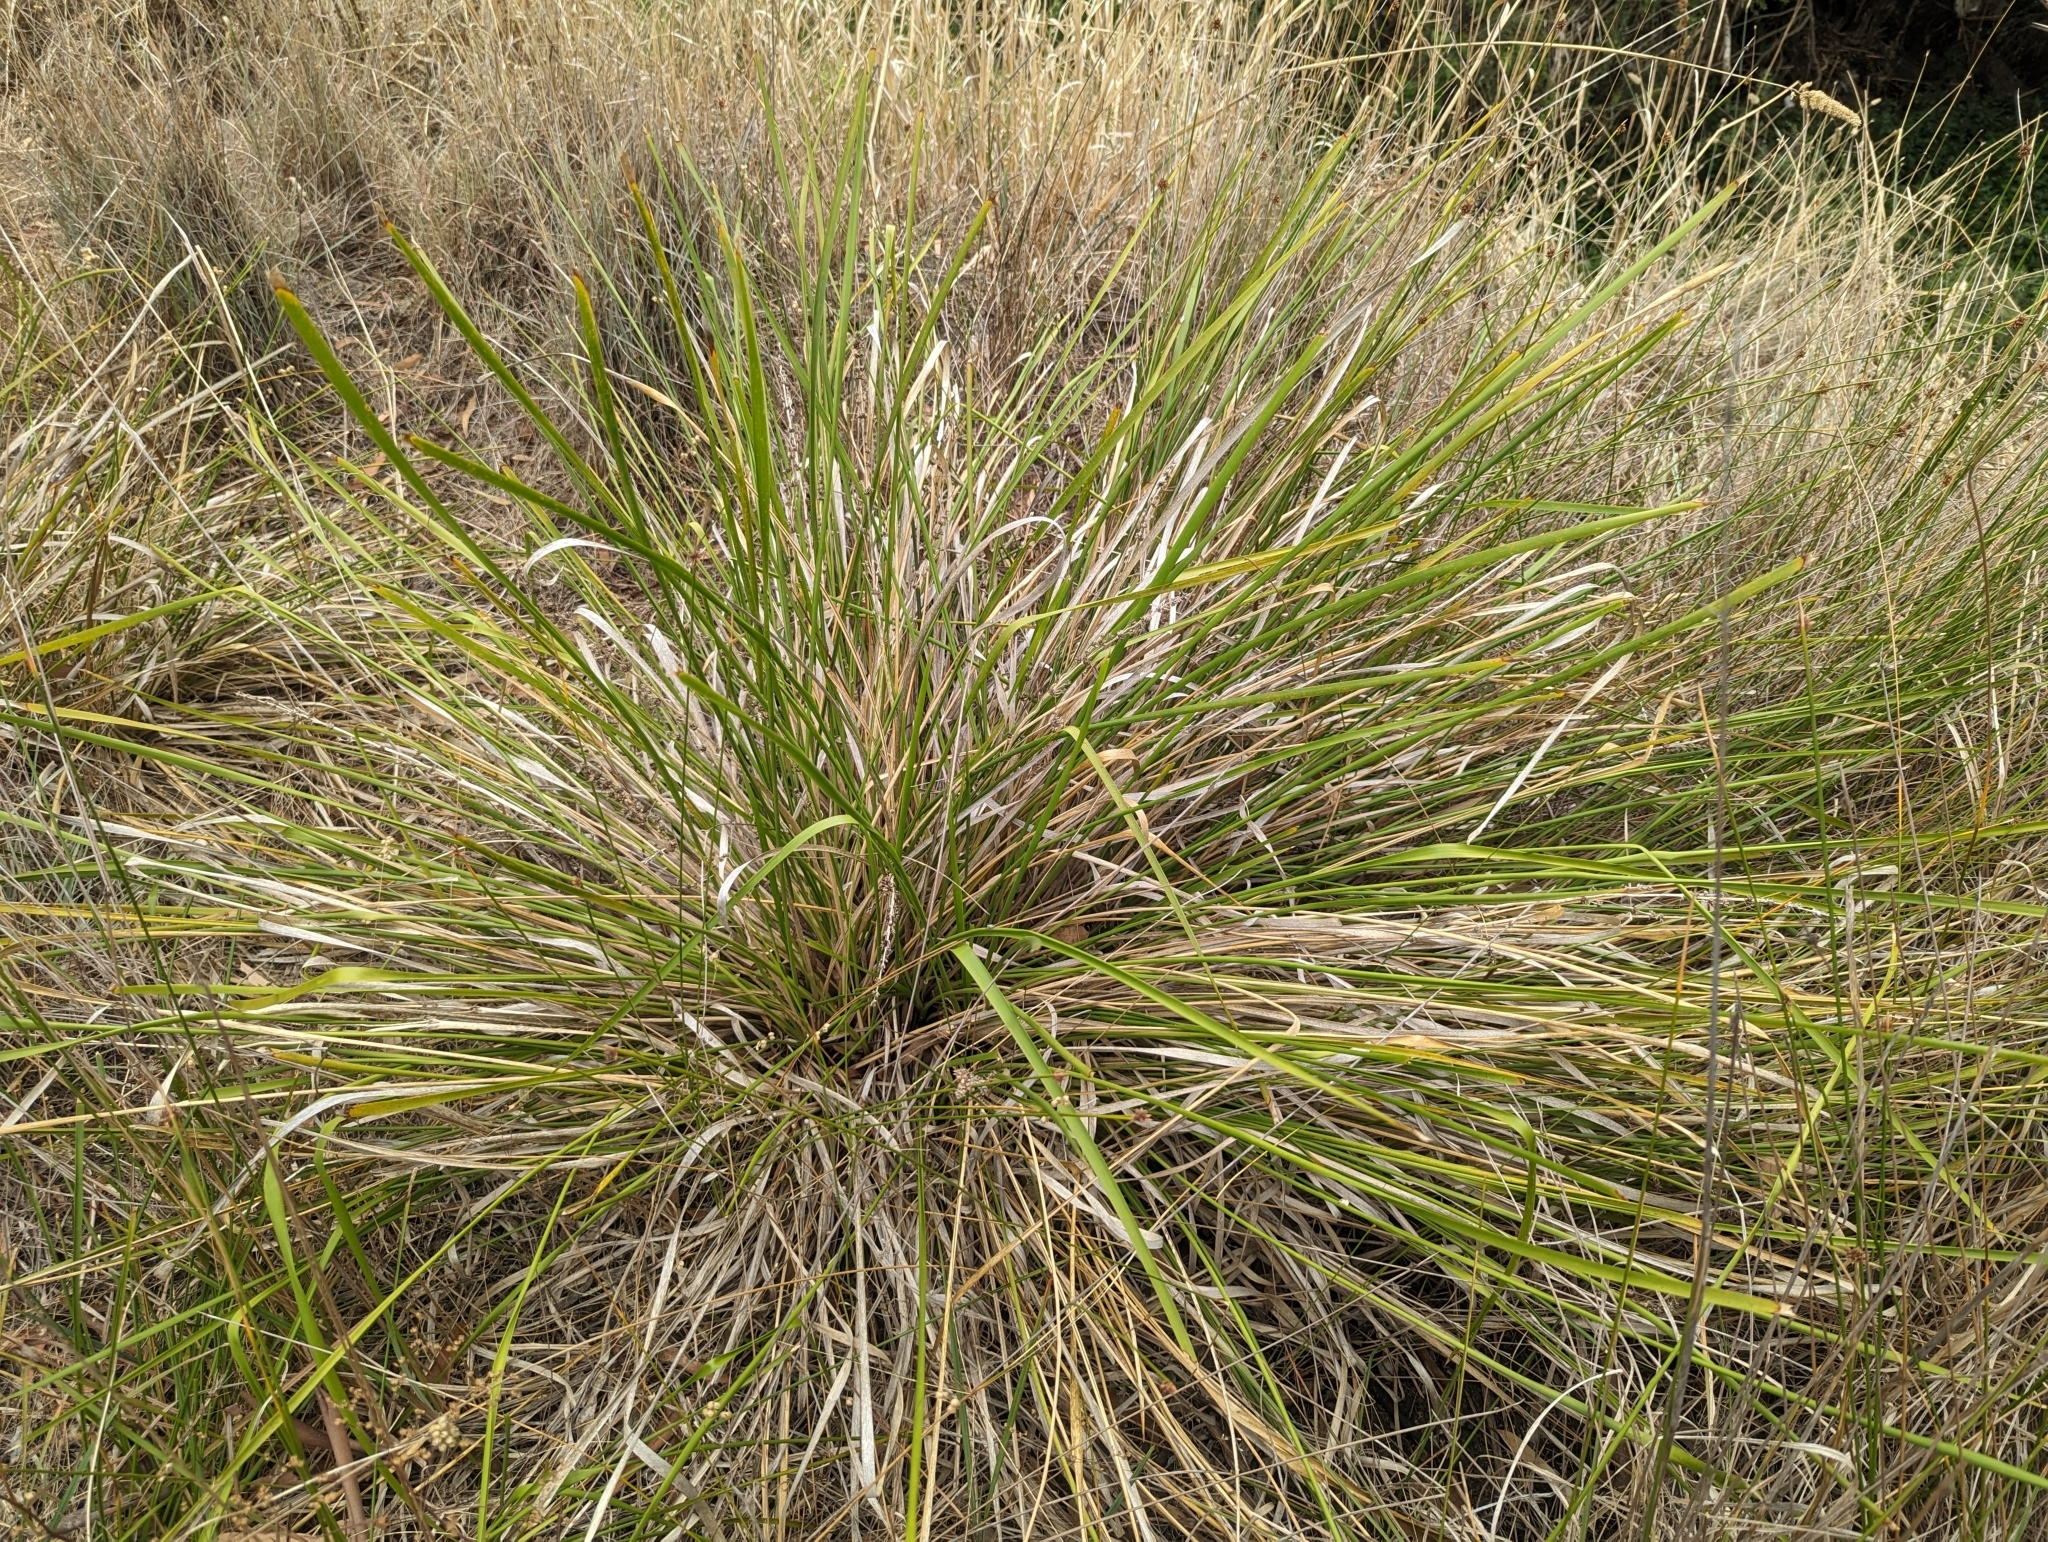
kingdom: Plantae
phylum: Tracheophyta
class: Liliopsida
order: Asparagales
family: Asparagaceae
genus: Lomandra
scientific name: Lomandra longifolia
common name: Longleaf mat-rush
